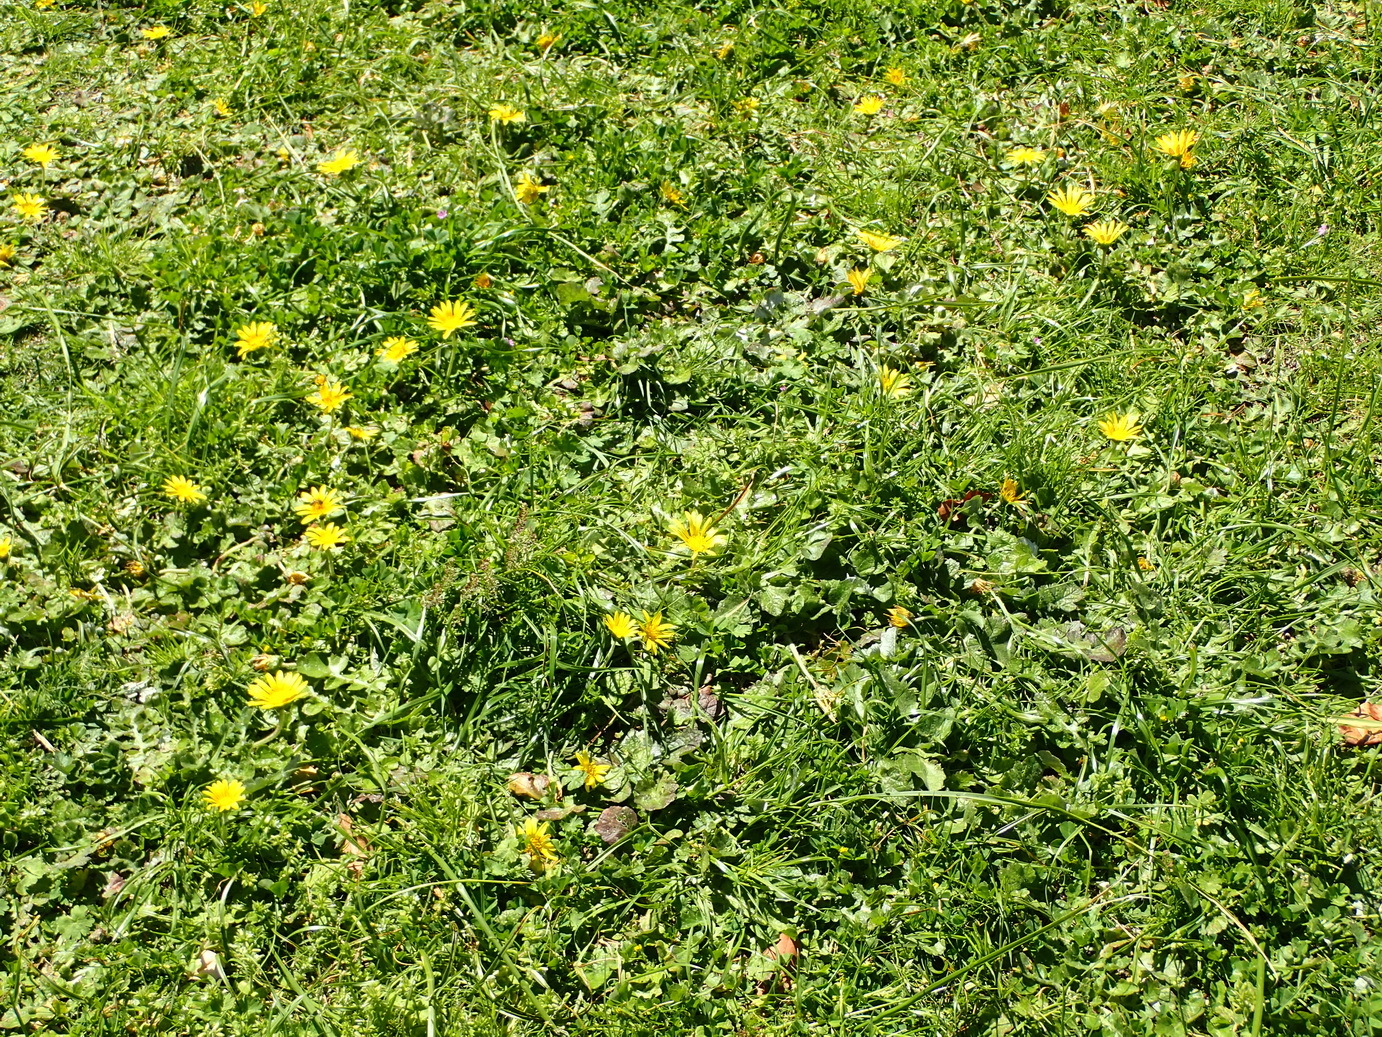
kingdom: Plantae
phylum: Tracheophyta
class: Magnoliopsida
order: Asterales
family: Asteraceae
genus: Arctotheca
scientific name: Arctotheca prostrata
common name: Capeweed
